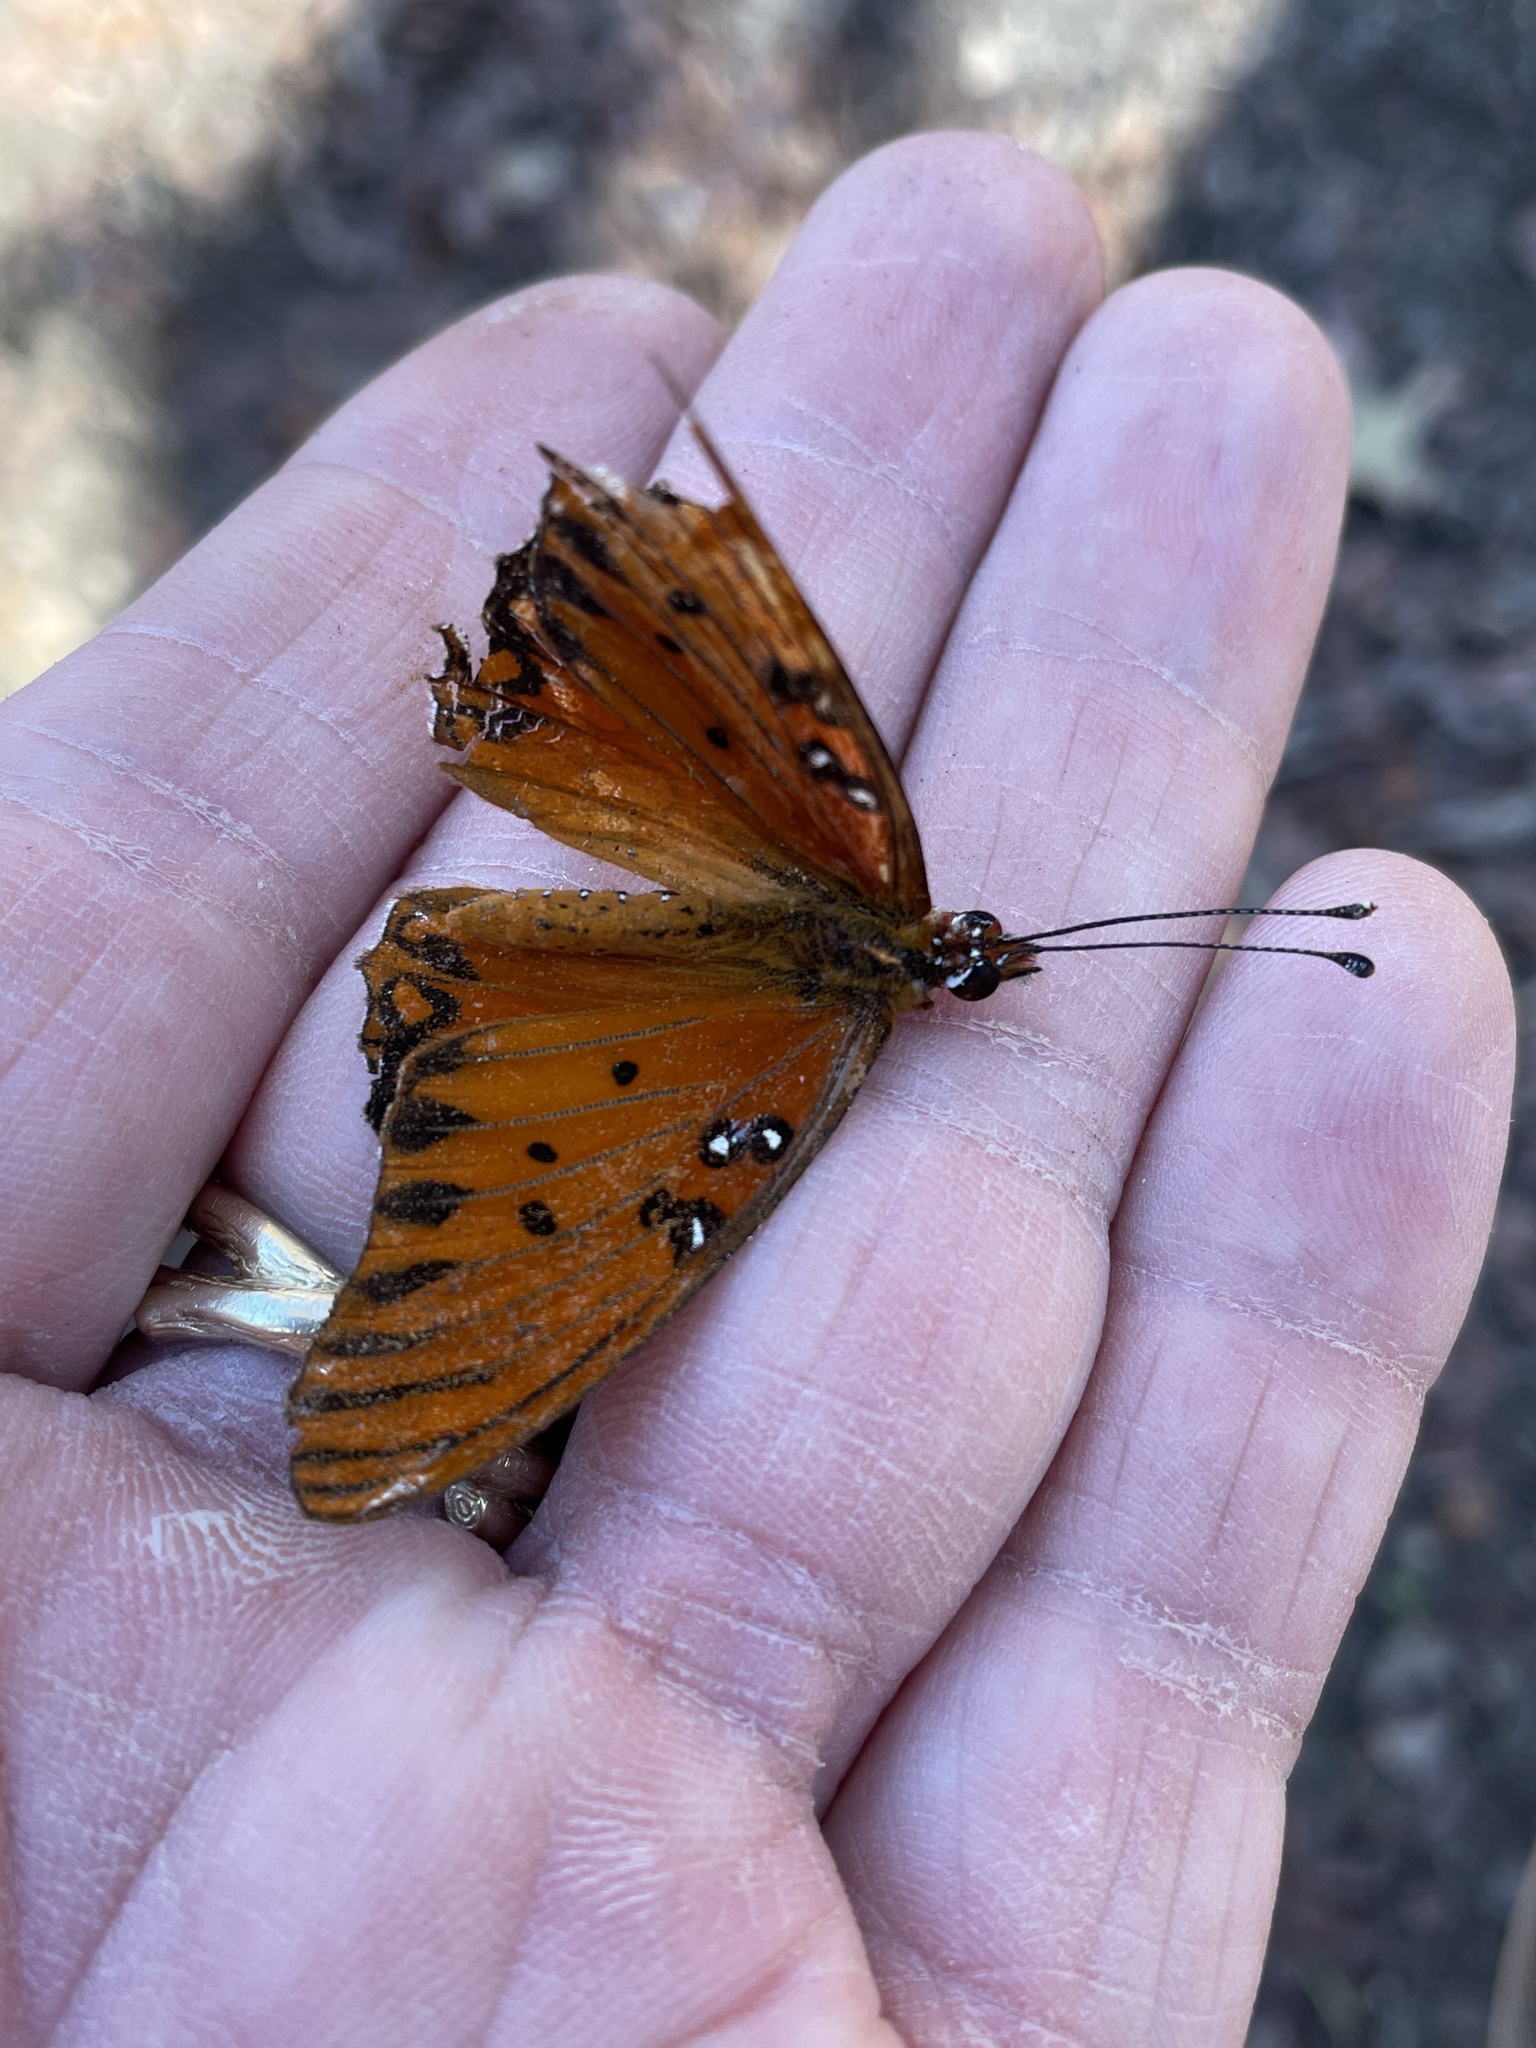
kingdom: Animalia
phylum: Arthropoda
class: Insecta
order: Lepidoptera
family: Nymphalidae
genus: Dione
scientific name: Dione vanillae
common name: Gulf fritillary
